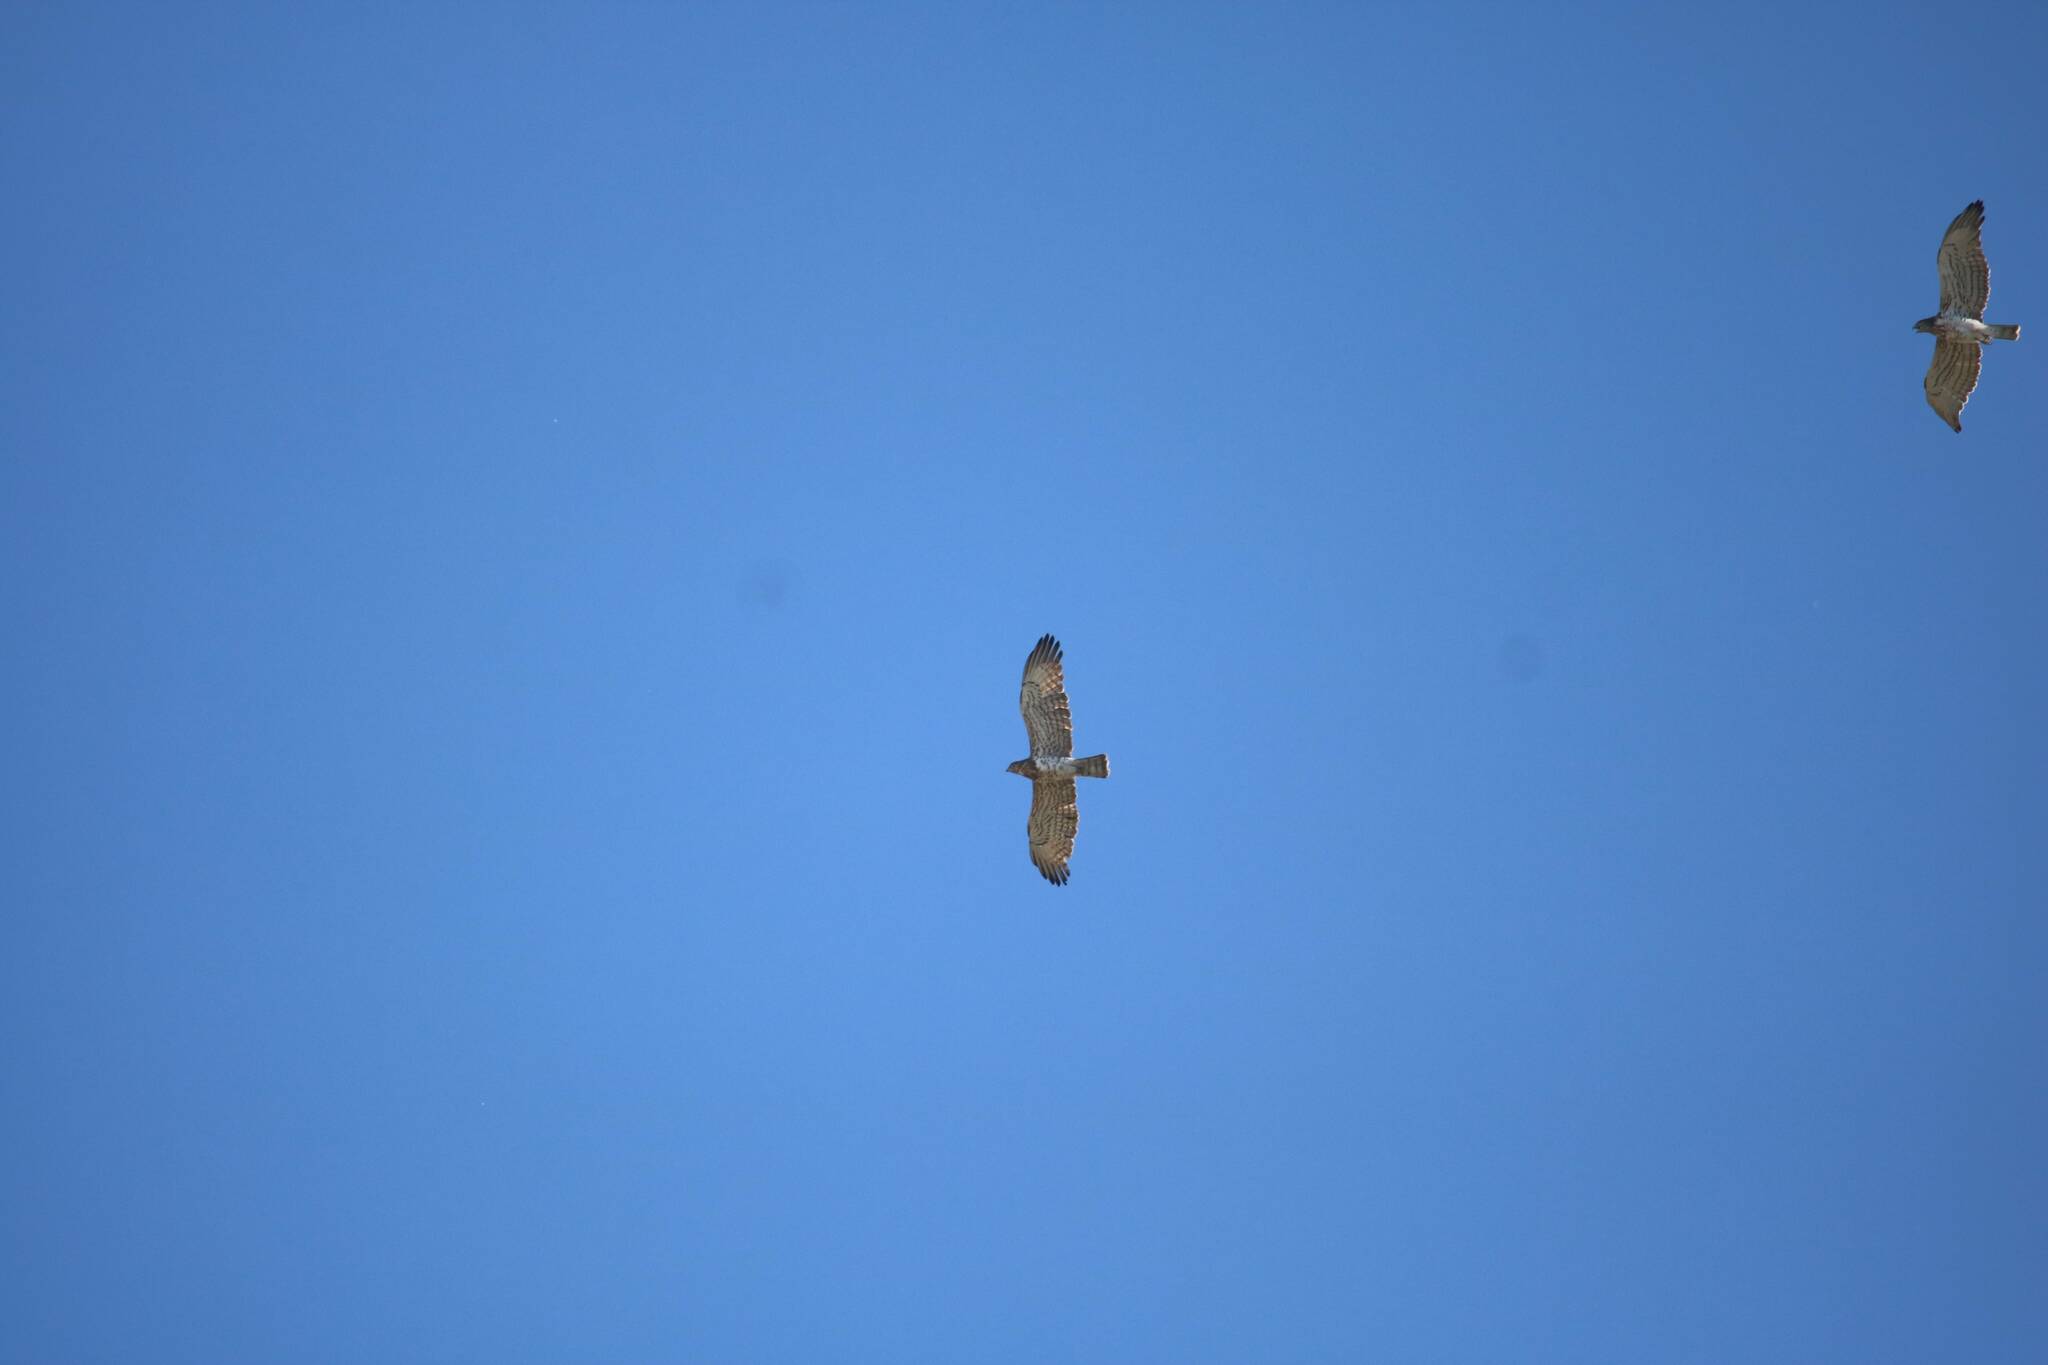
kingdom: Animalia
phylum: Chordata
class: Aves
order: Accipitriformes
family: Accipitridae
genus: Circaetus
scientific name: Circaetus gallicus
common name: Short-toed snake eagle
